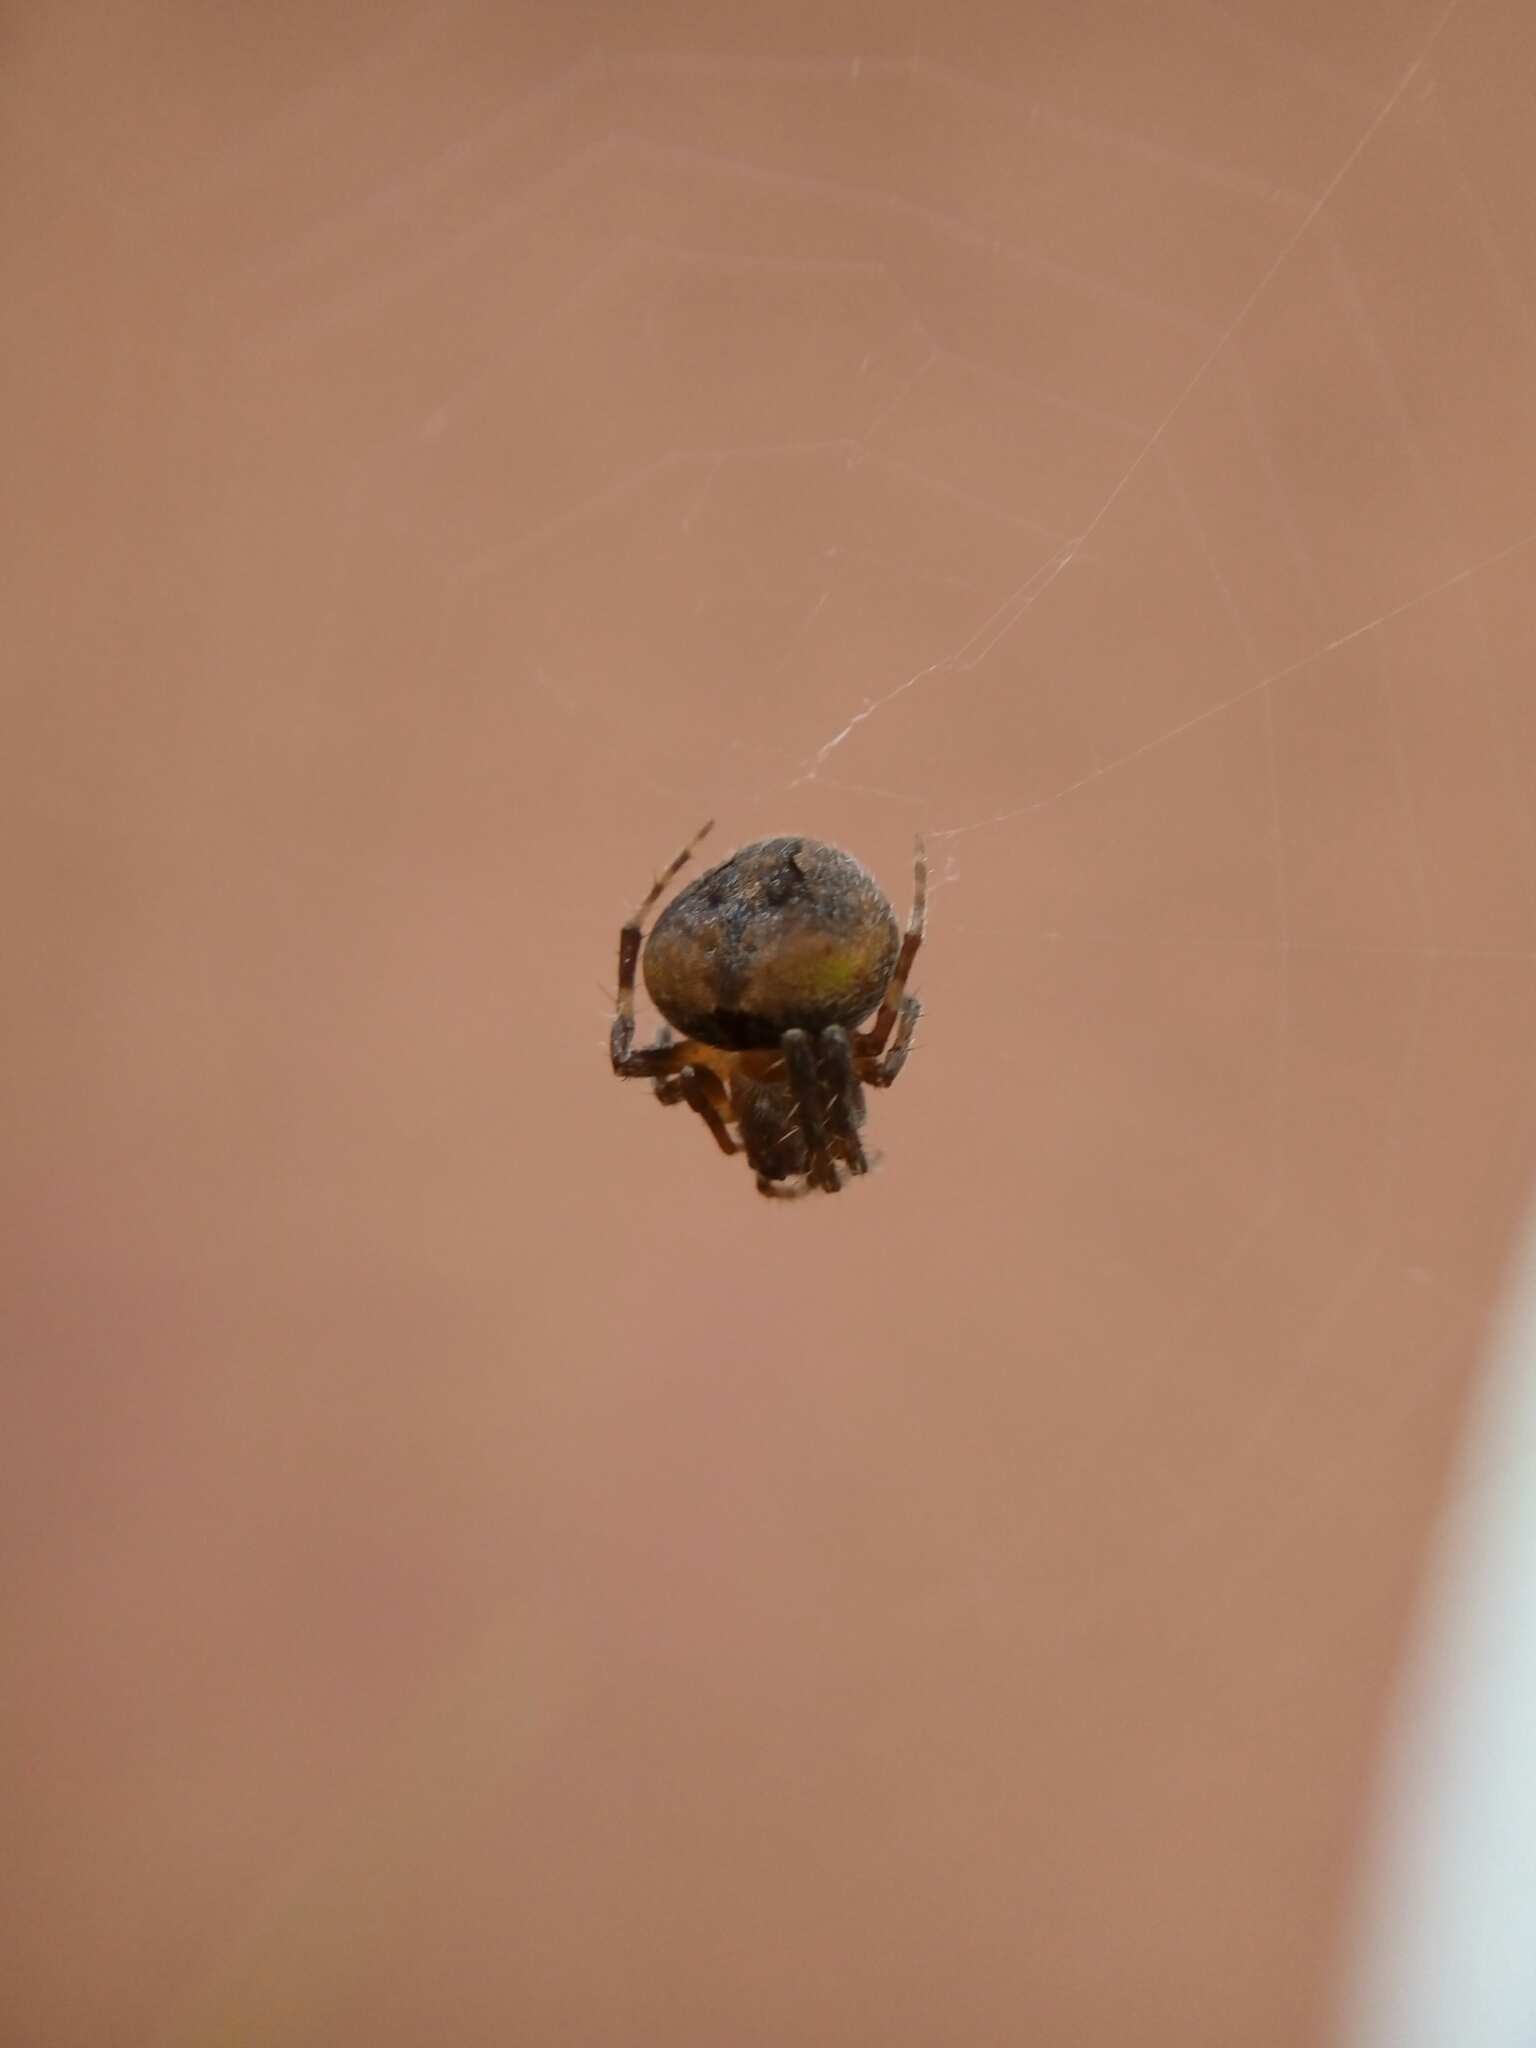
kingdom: Animalia
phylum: Arthropoda
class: Arachnida
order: Araneae
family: Araneidae
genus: Neoscona
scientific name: Neoscona subfusca
